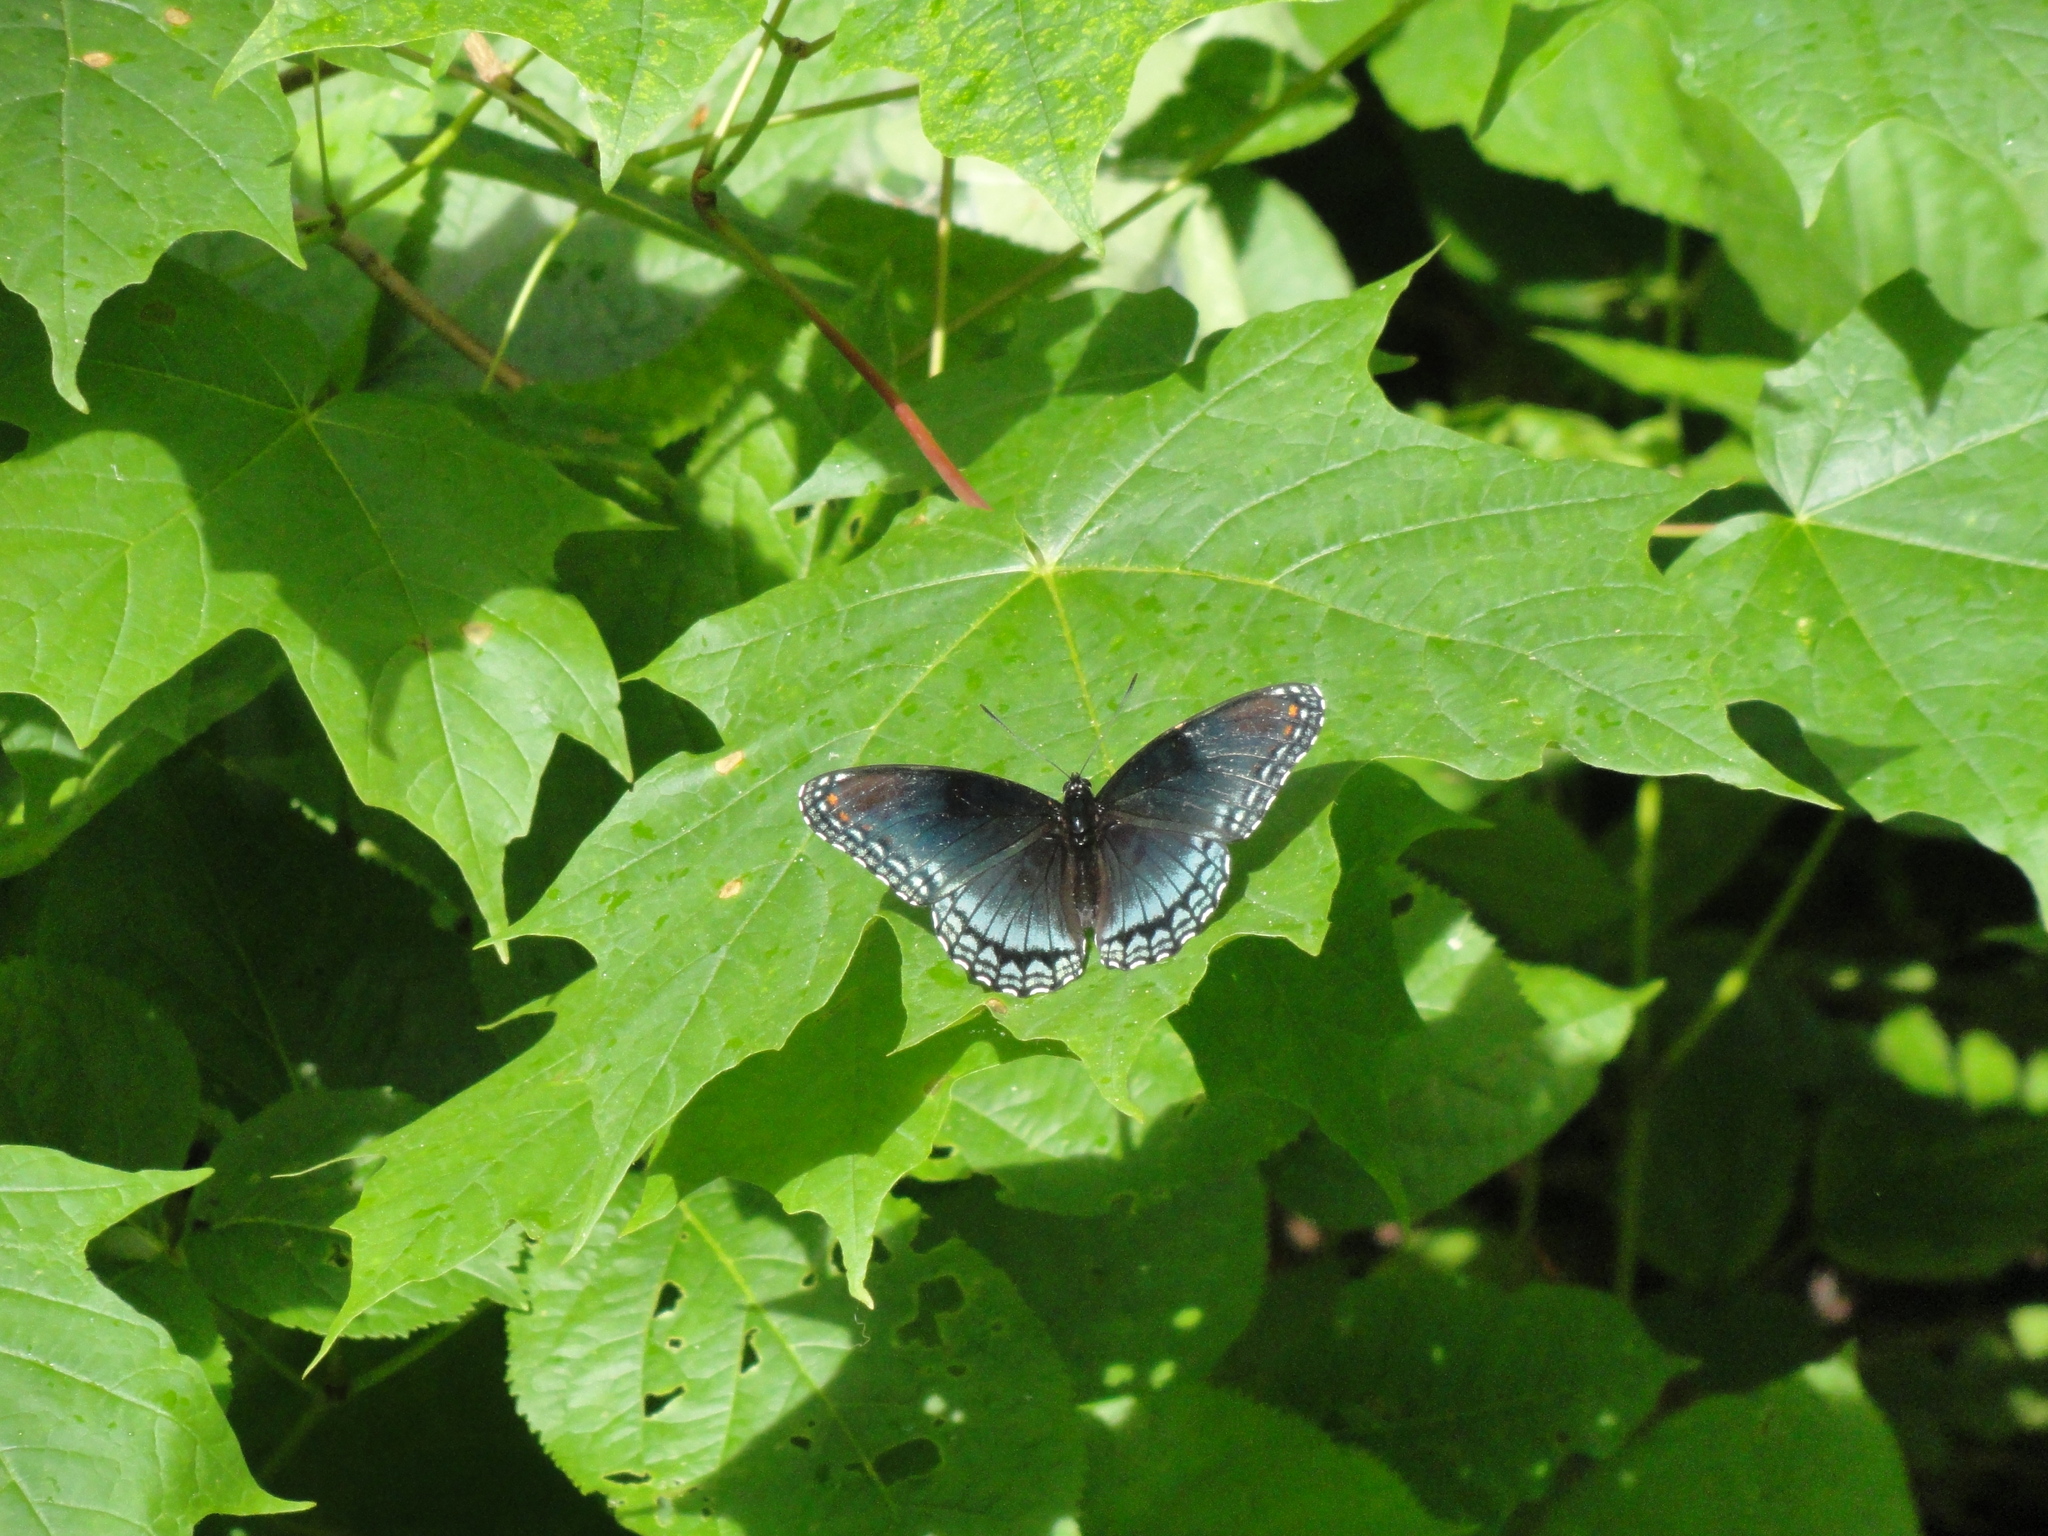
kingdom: Animalia
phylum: Arthropoda
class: Insecta
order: Lepidoptera
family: Nymphalidae
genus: Limenitis
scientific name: Limenitis astyanax
